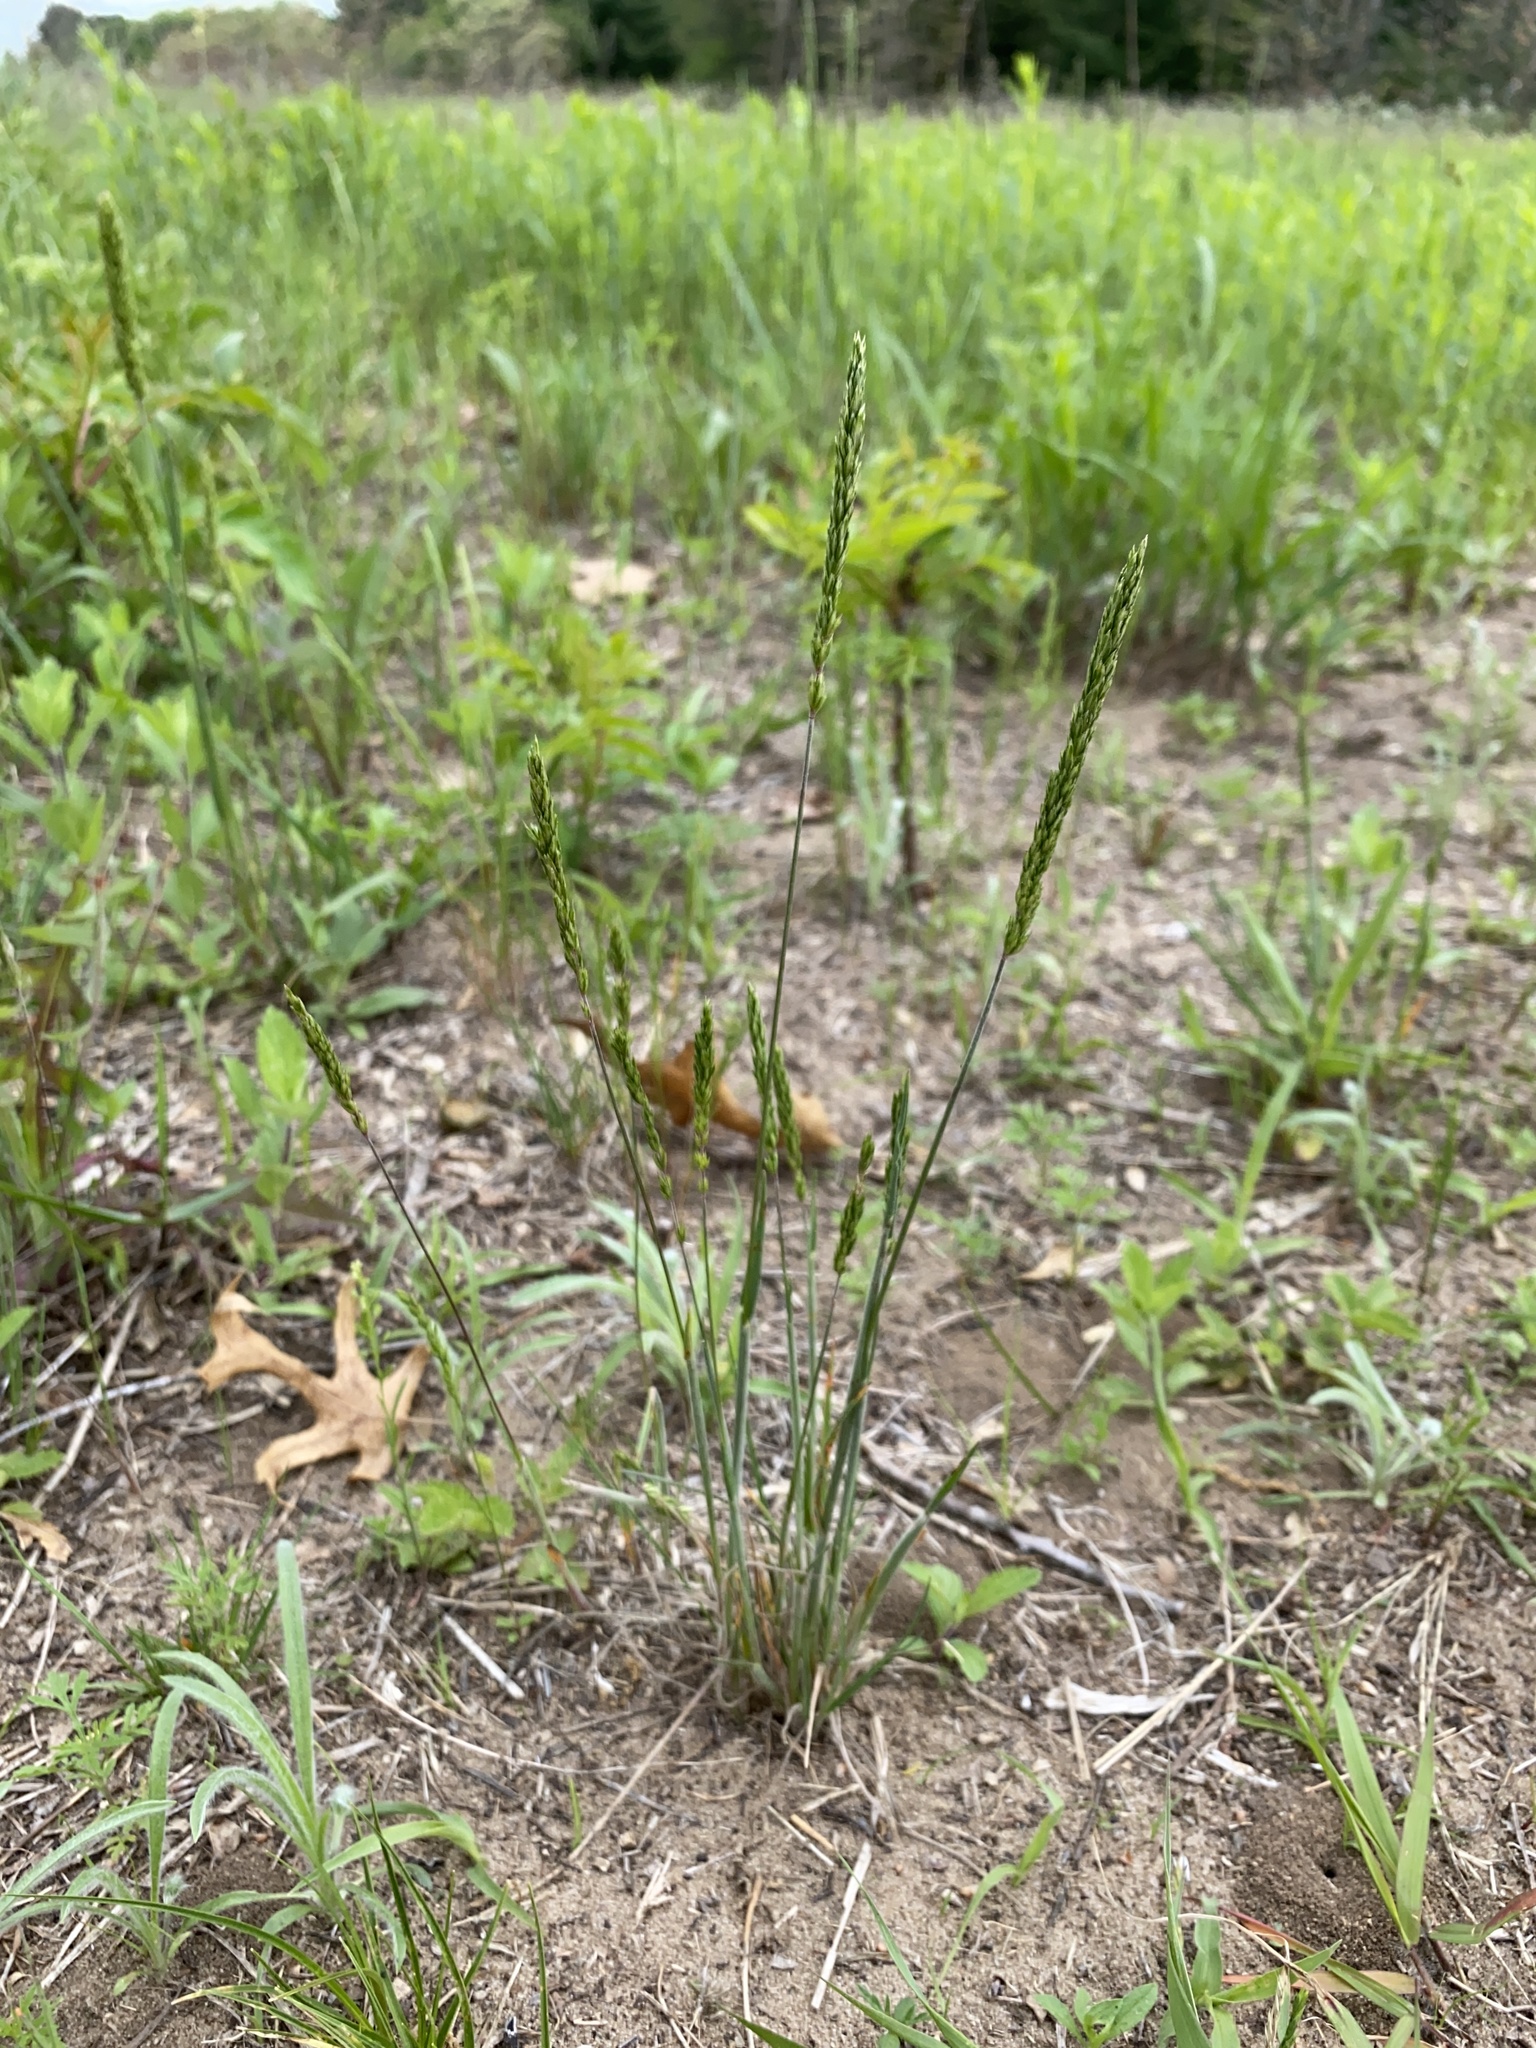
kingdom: Plantae
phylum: Tracheophyta
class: Liliopsida
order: Poales
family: Poaceae
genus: Koeleria
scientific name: Koeleria macrantha
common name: Crested hair-grass
